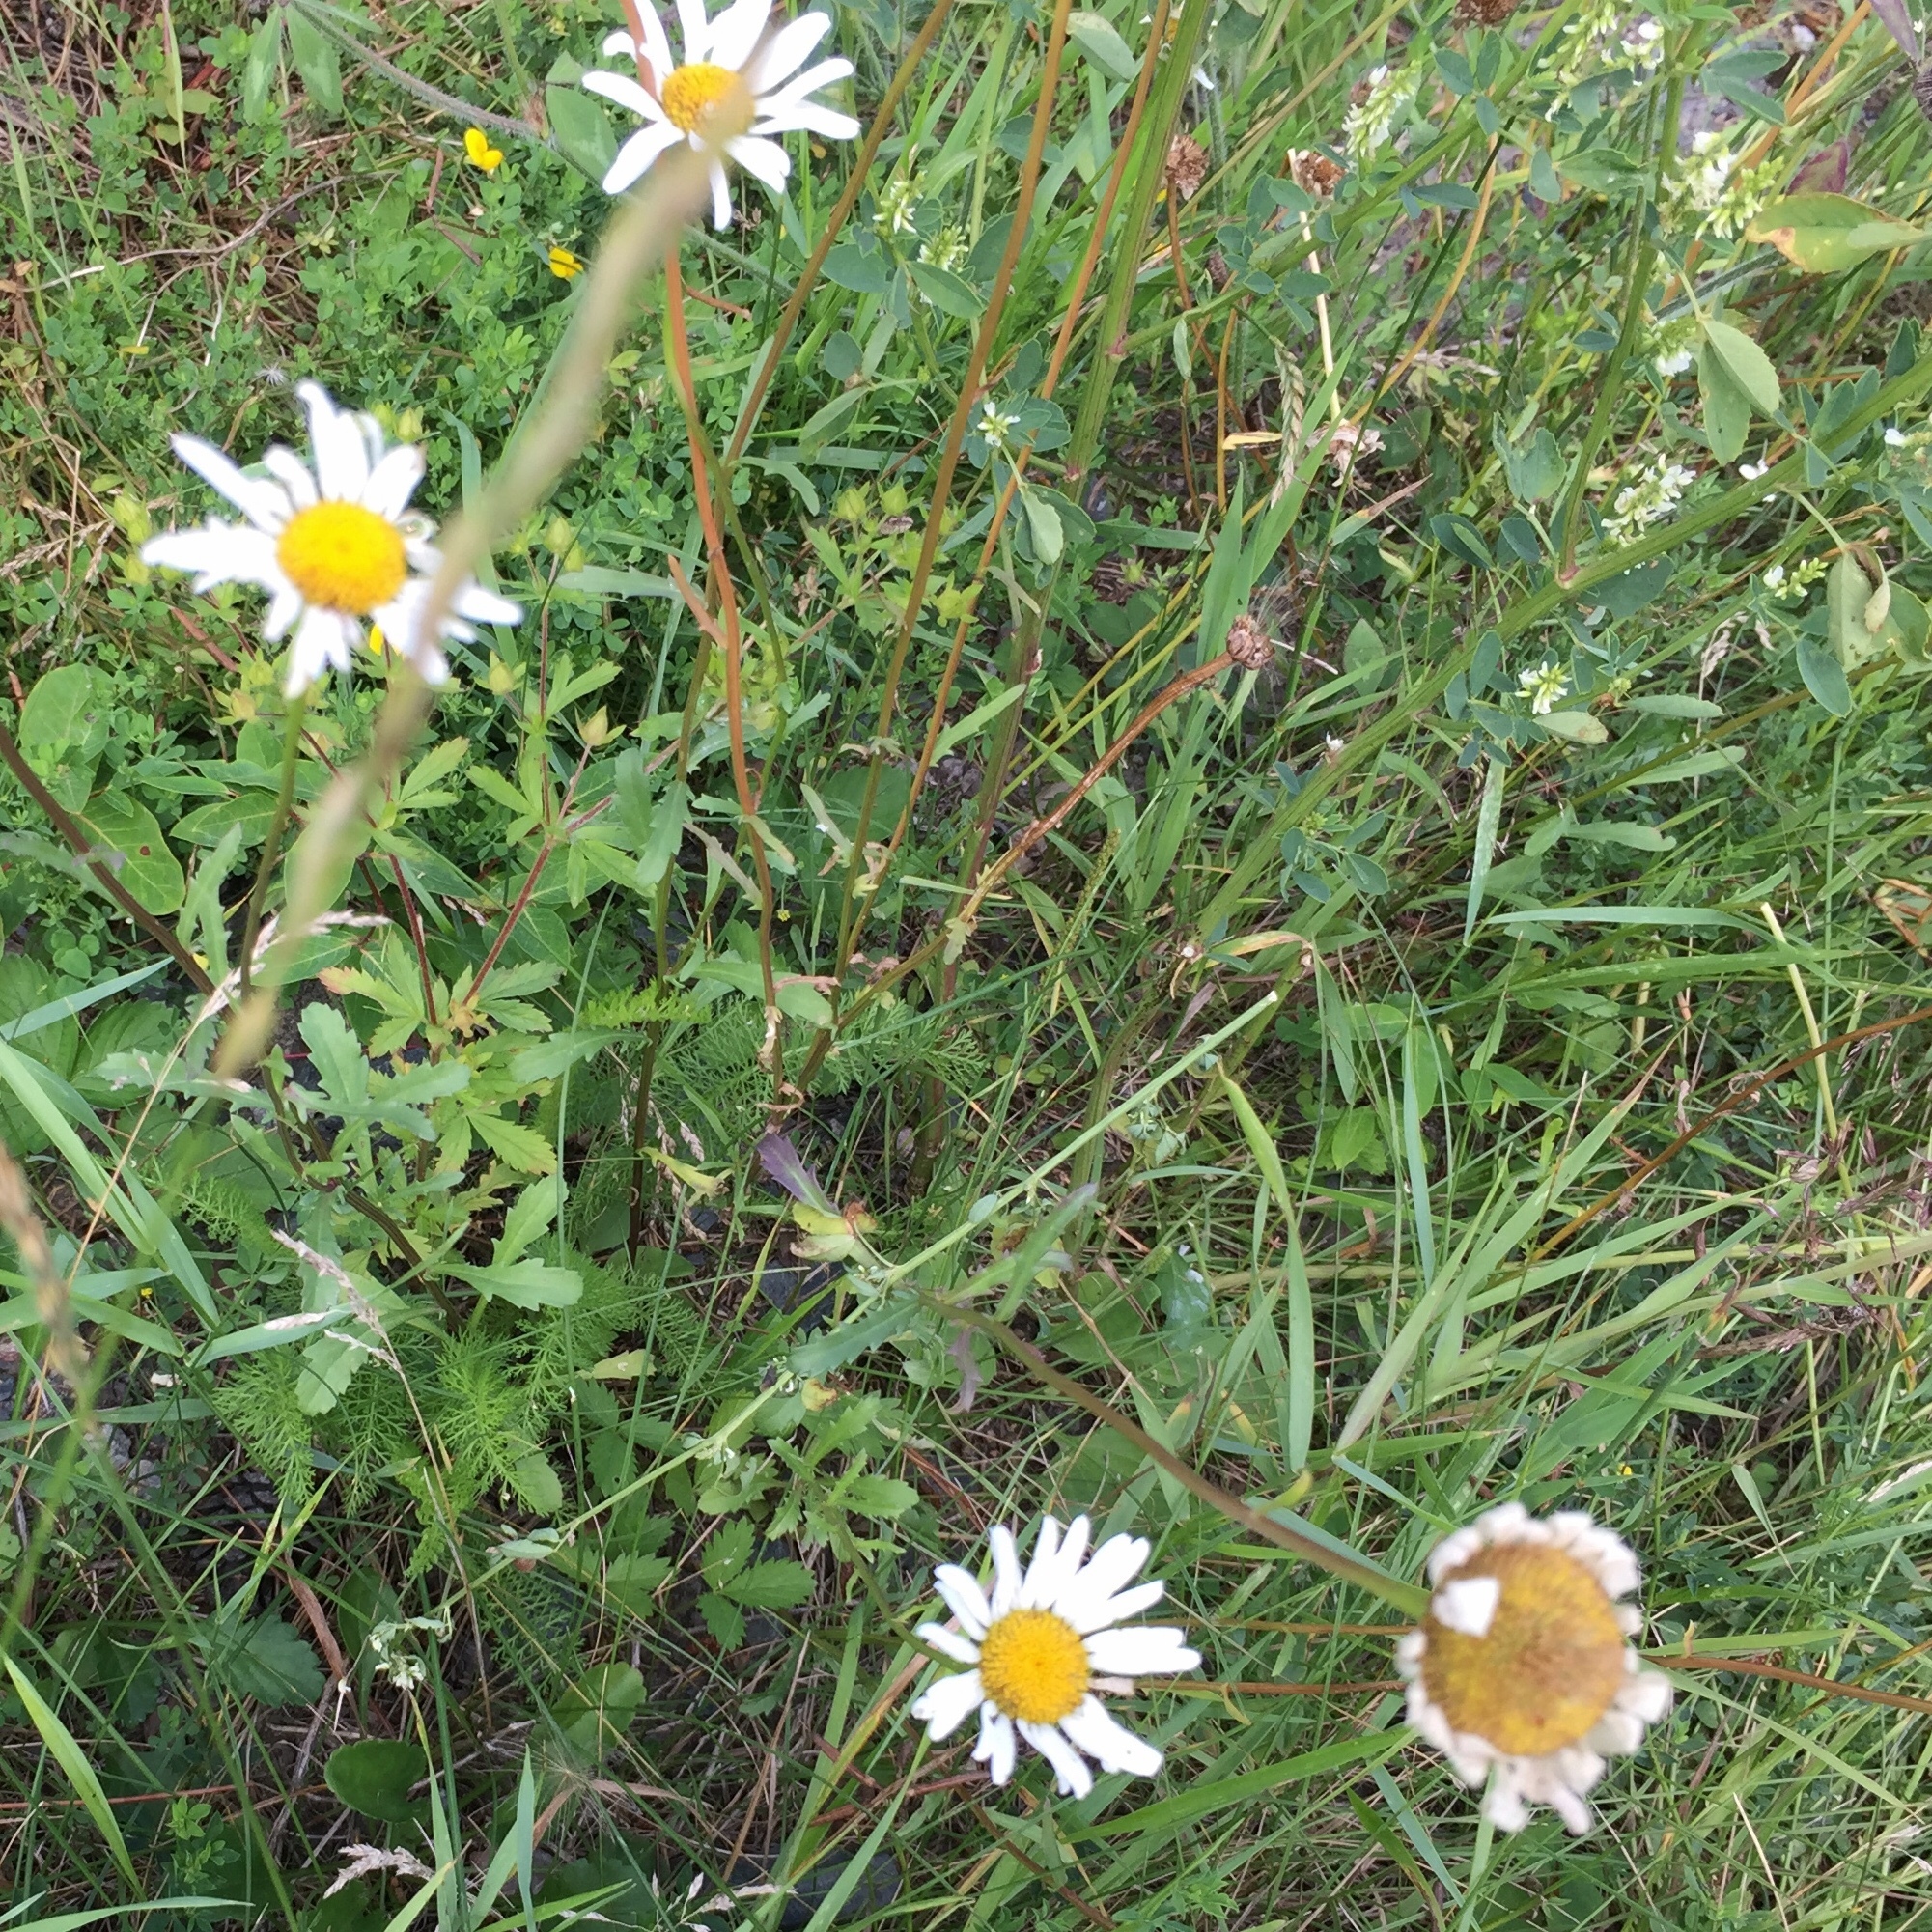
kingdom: Plantae
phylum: Tracheophyta
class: Magnoliopsida
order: Asterales
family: Asteraceae
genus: Leucanthemum
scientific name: Leucanthemum vulgare
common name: Oxeye daisy
